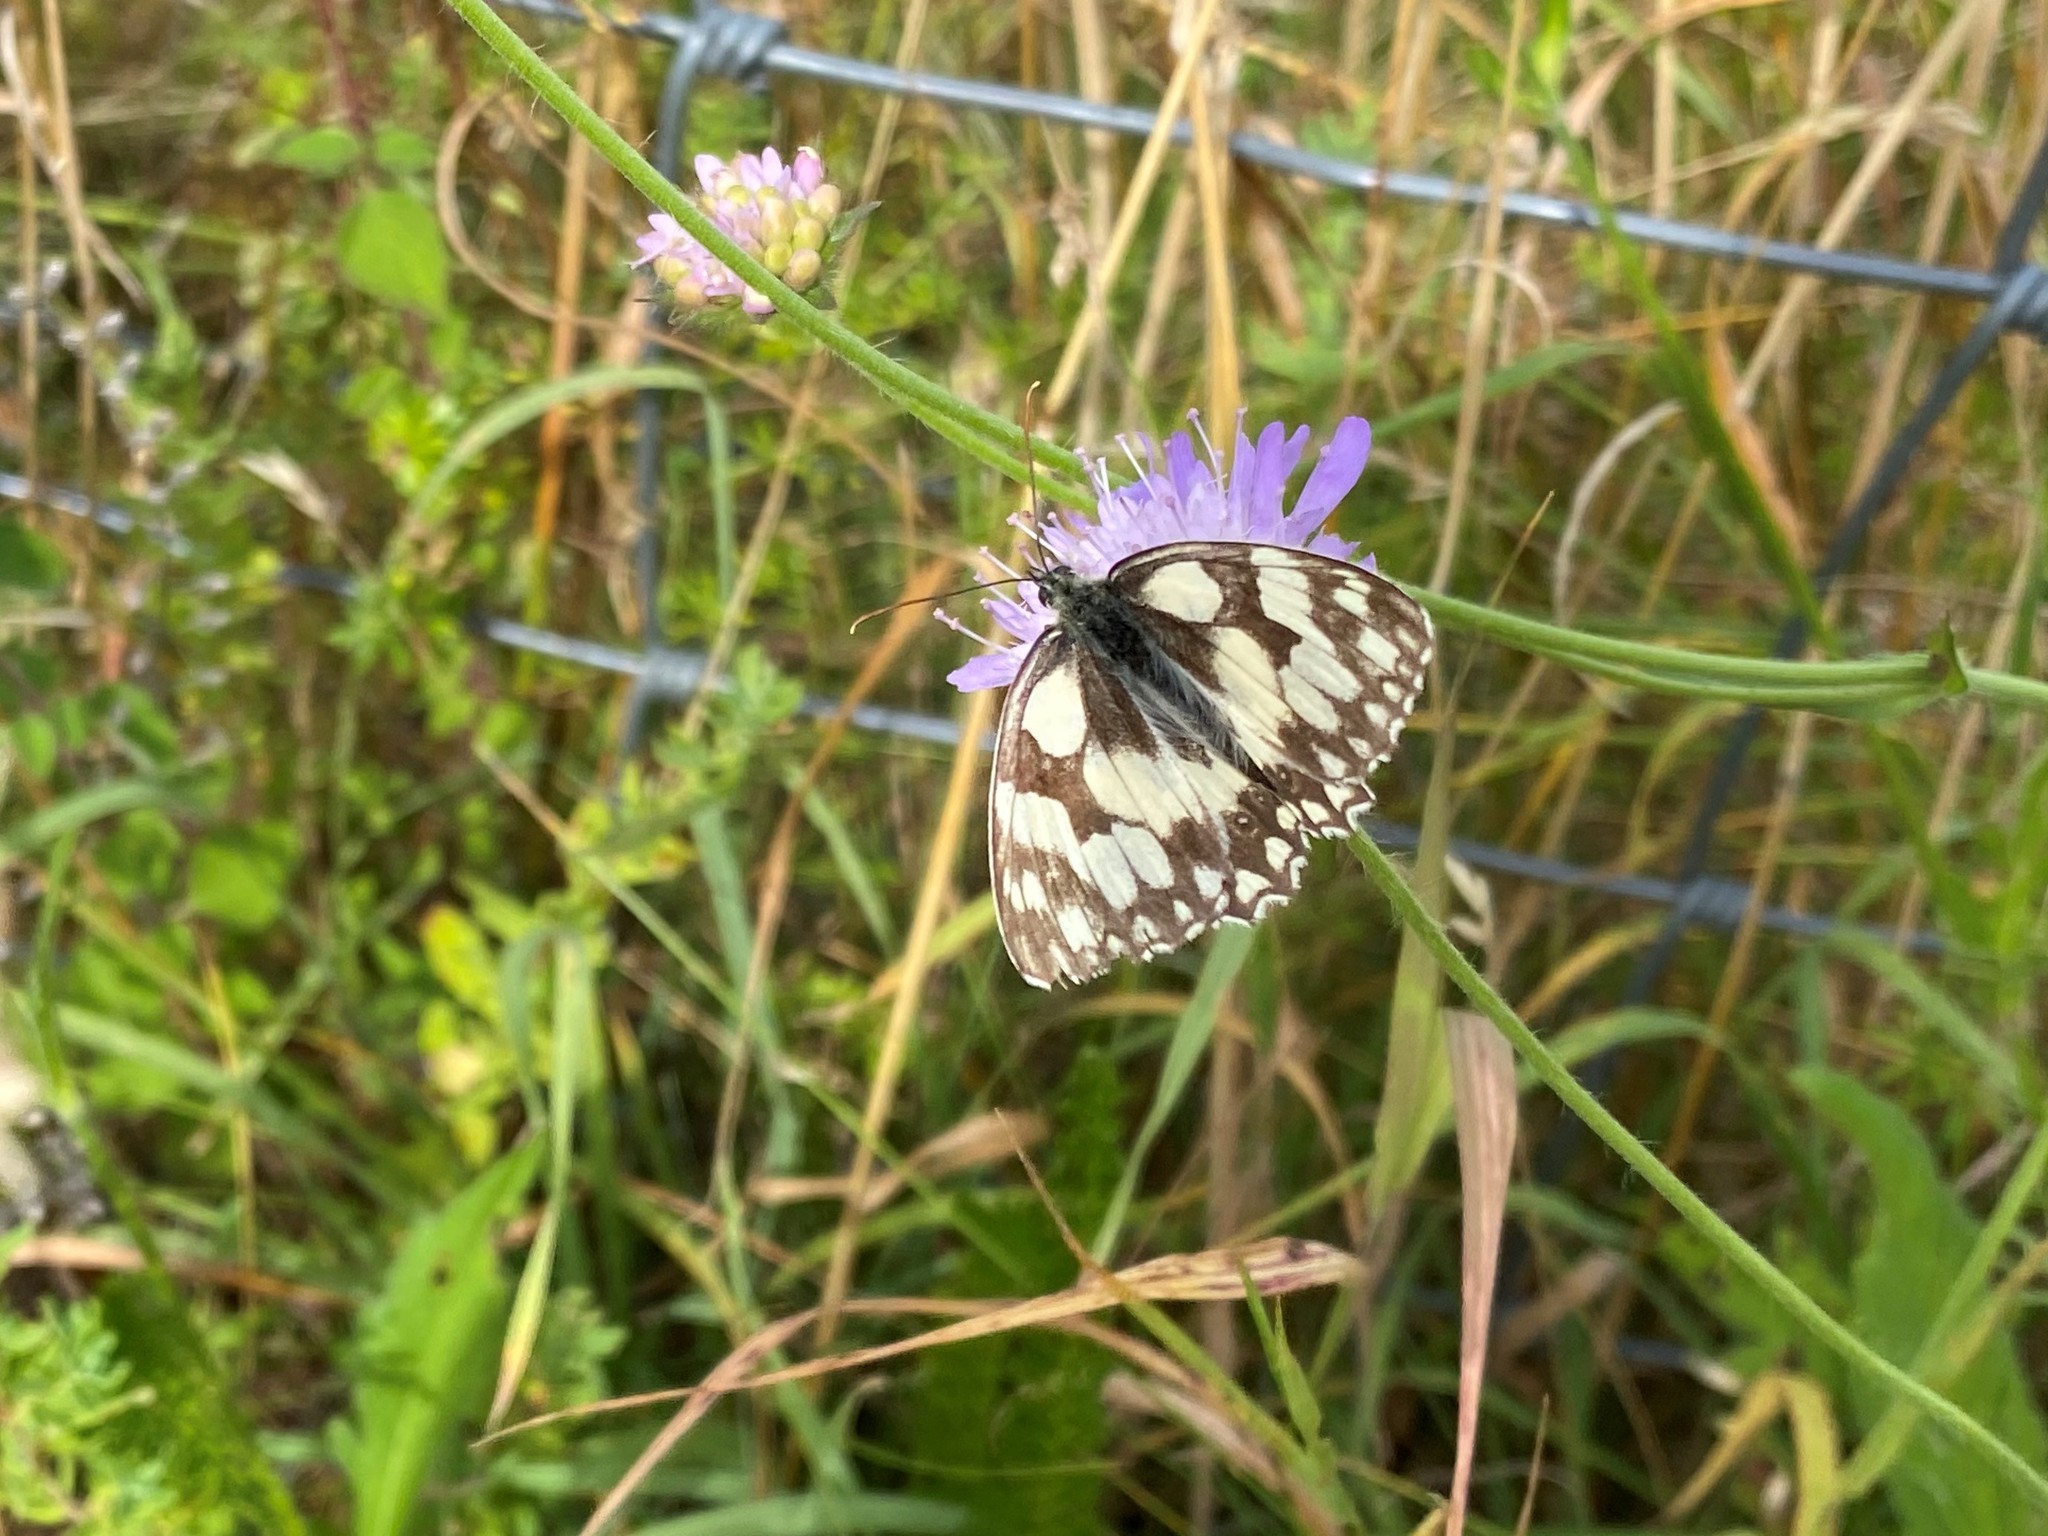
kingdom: Animalia
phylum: Arthropoda
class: Insecta
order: Lepidoptera
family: Nymphalidae
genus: Melanargia
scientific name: Melanargia galathea
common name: Marbled white
